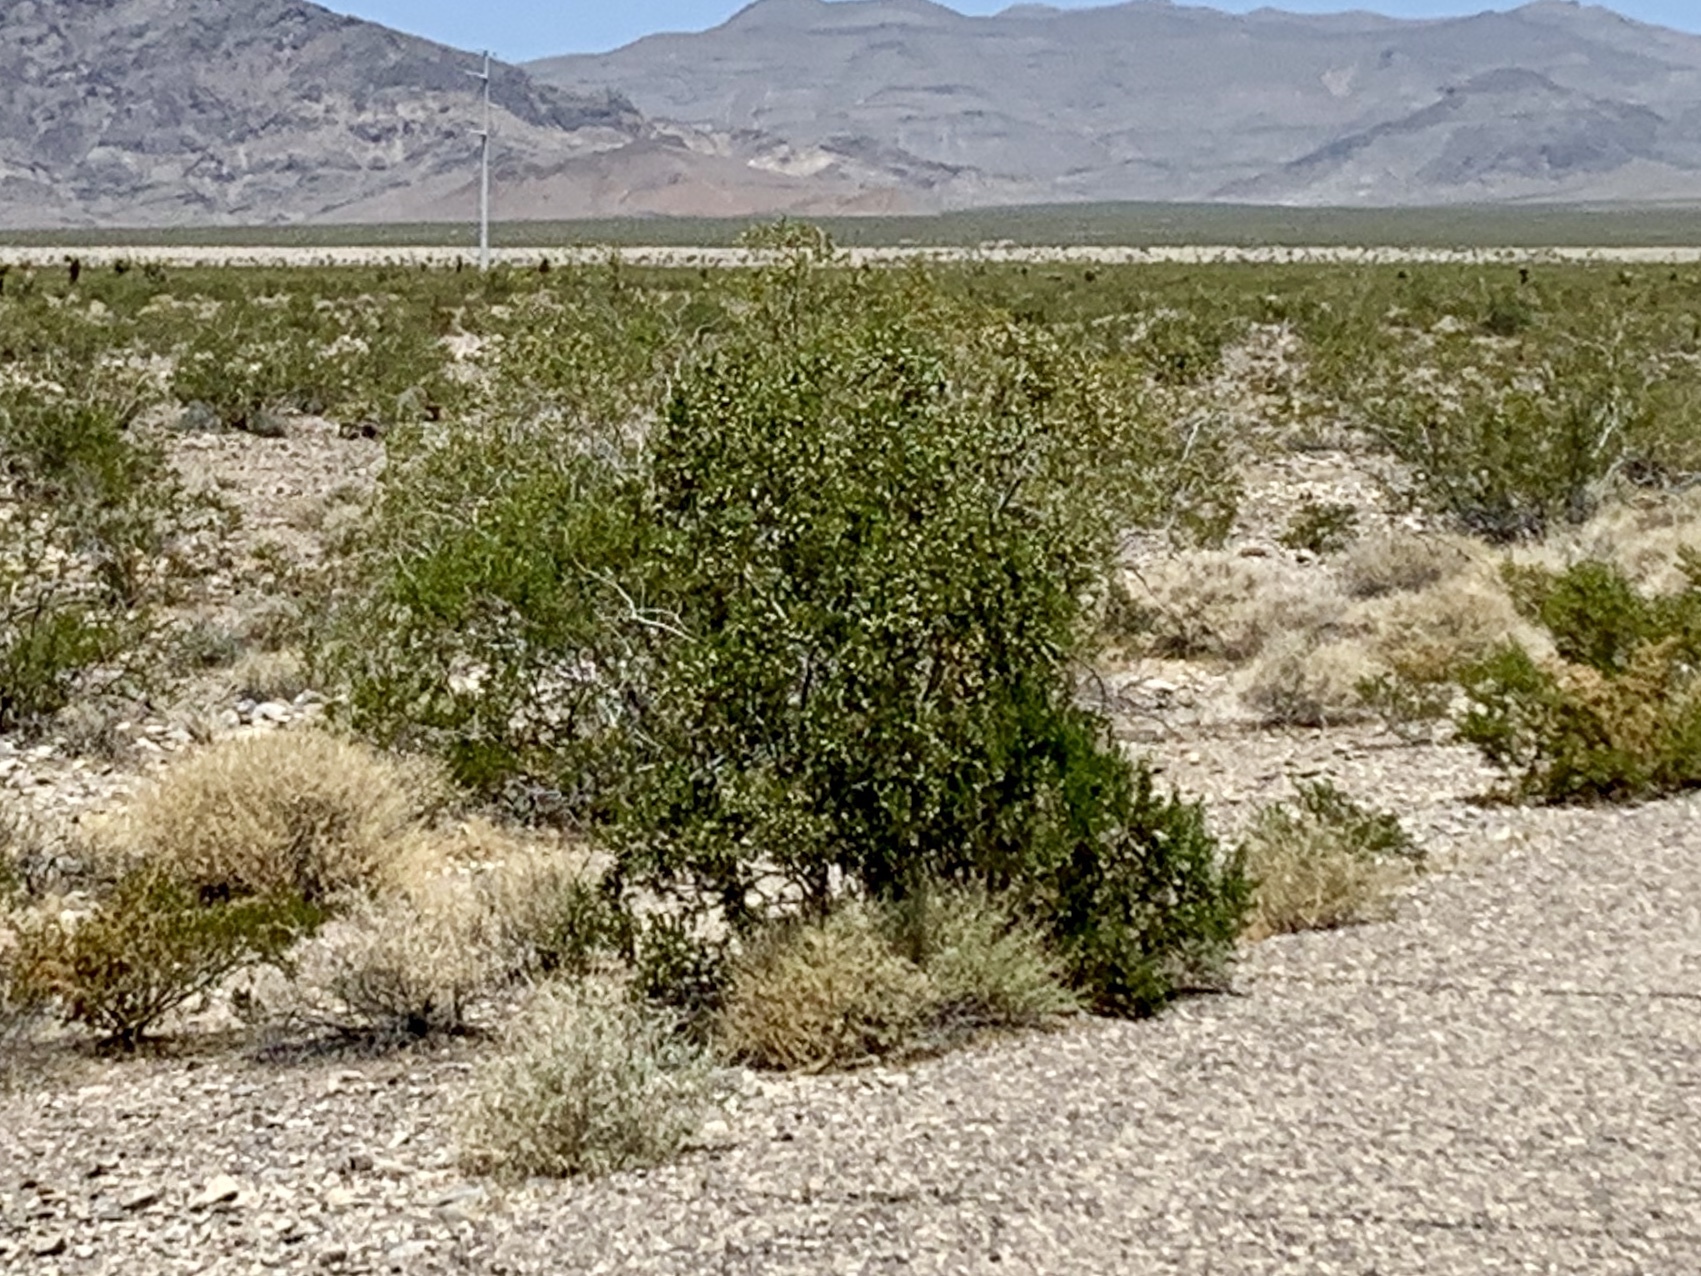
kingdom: Plantae
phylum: Tracheophyta
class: Magnoliopsida
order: Zygophyllales
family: Zygophyllaceae
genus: Larrea
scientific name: Larrea tridentata
